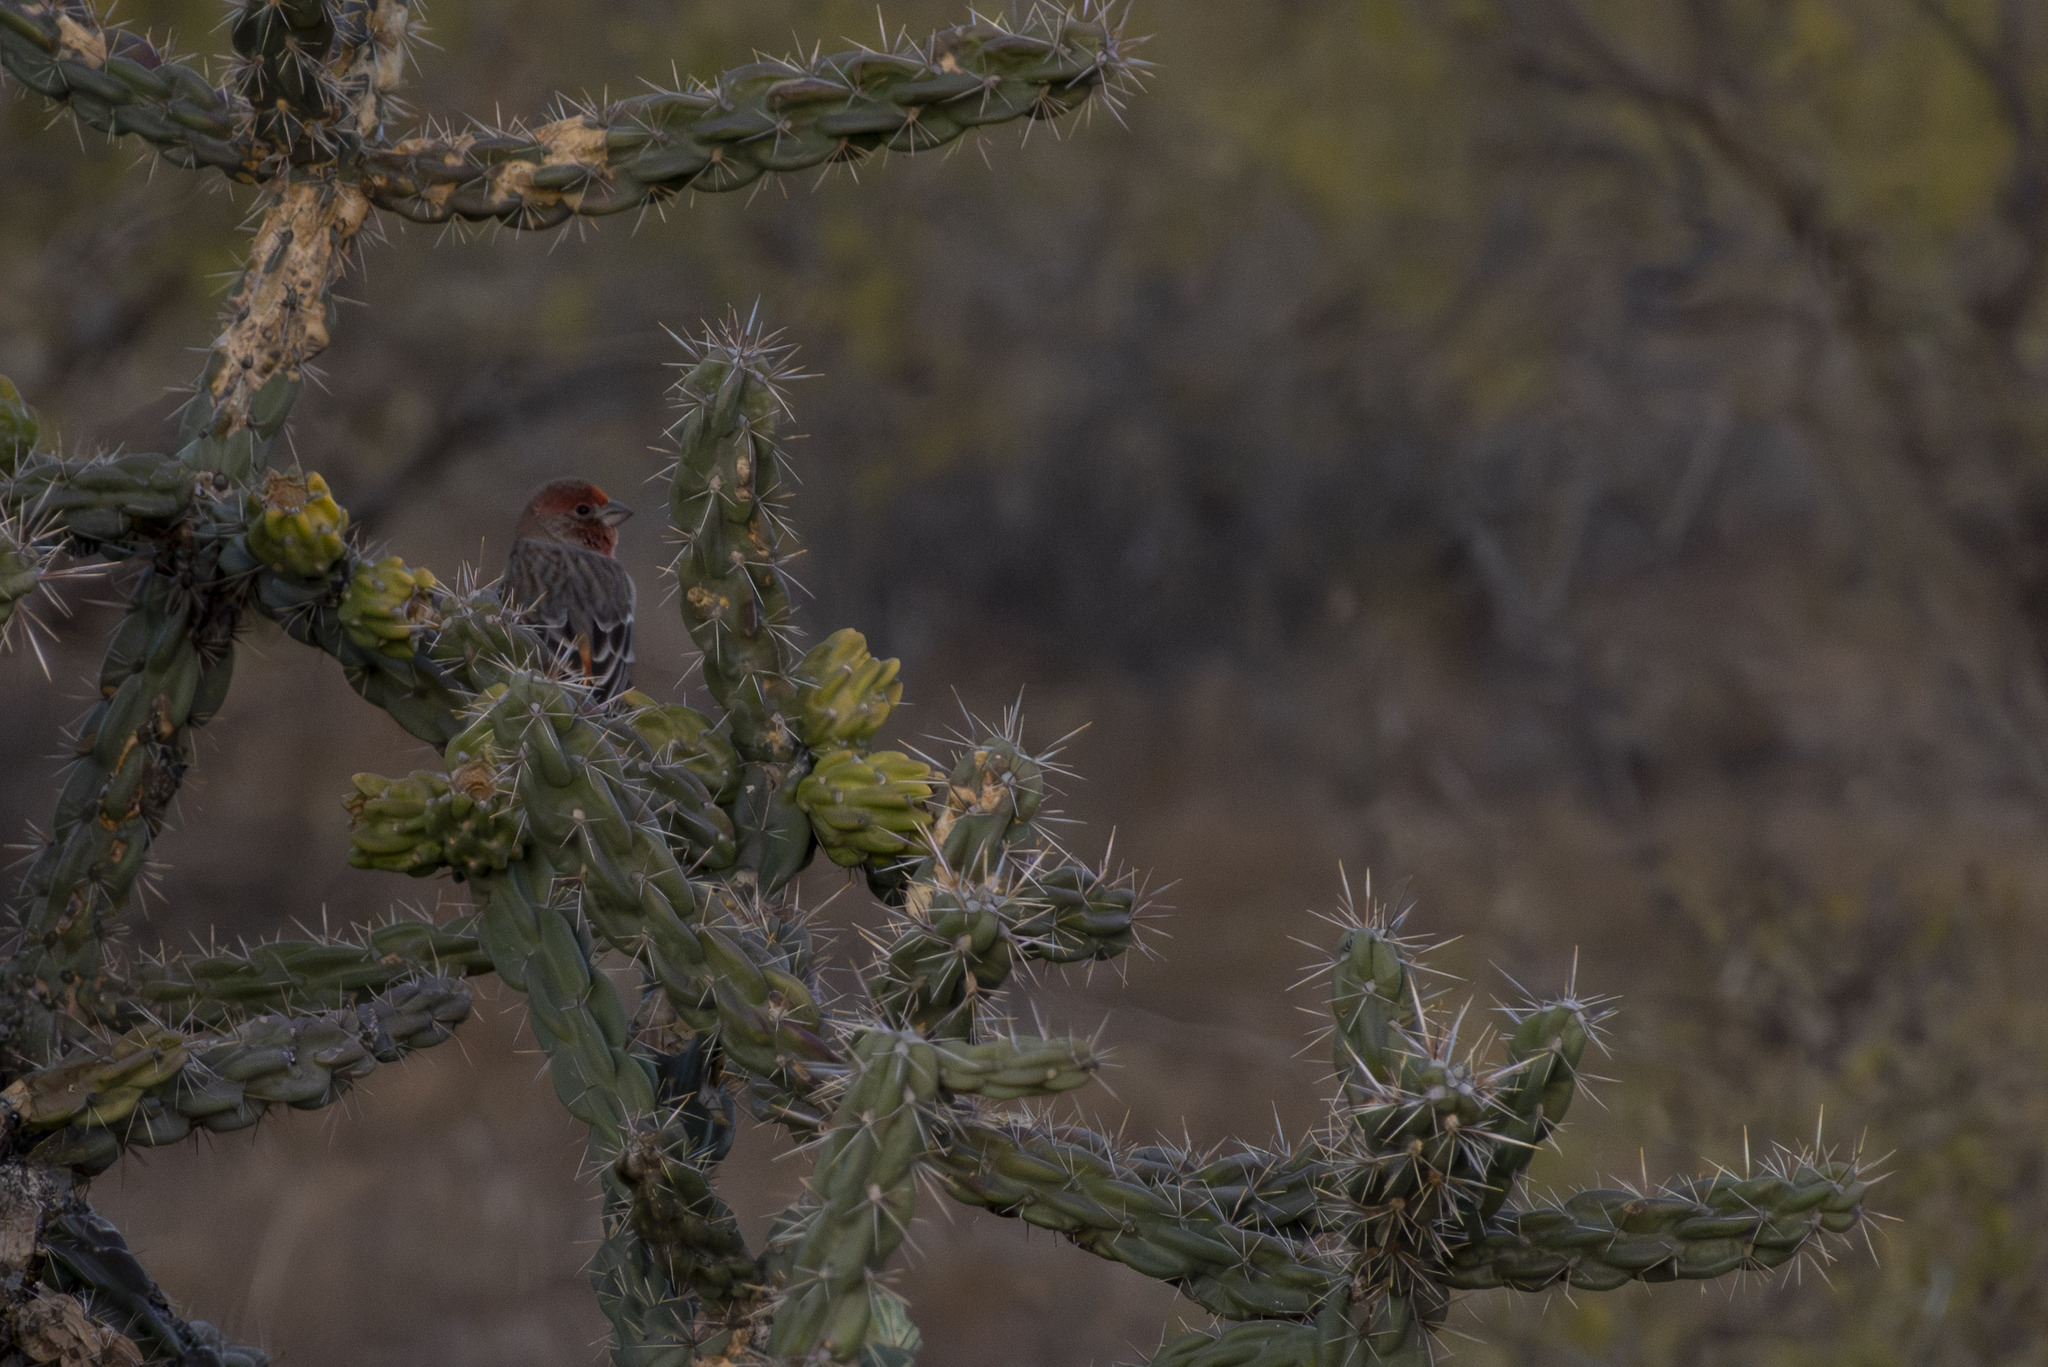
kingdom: Animalia
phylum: Chordata
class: Aves
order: Passeriformes
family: Fringillidae
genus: Haemorhous
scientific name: Haemorhous mexicanus
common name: House finch
